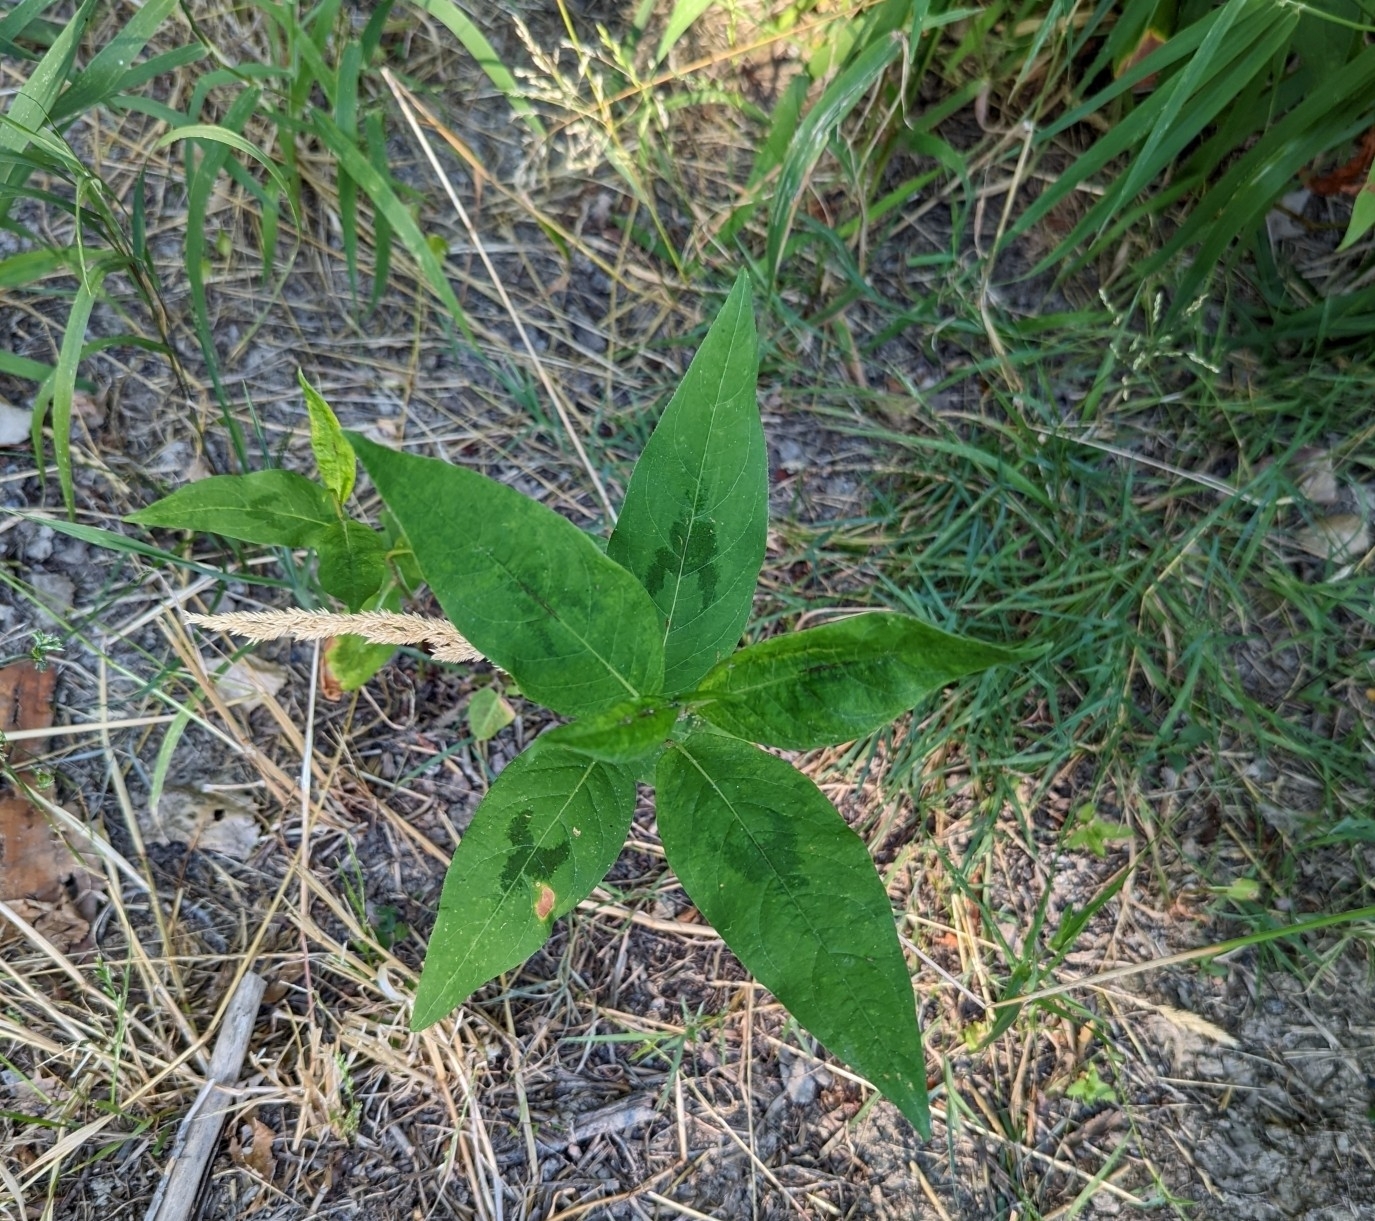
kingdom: Plantae
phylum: Tracheophyta
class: Magnoliopsida
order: Caryophyllales
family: Polygonaceae
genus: Persicaria
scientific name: Persicaria virginiana
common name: Jumpseed
